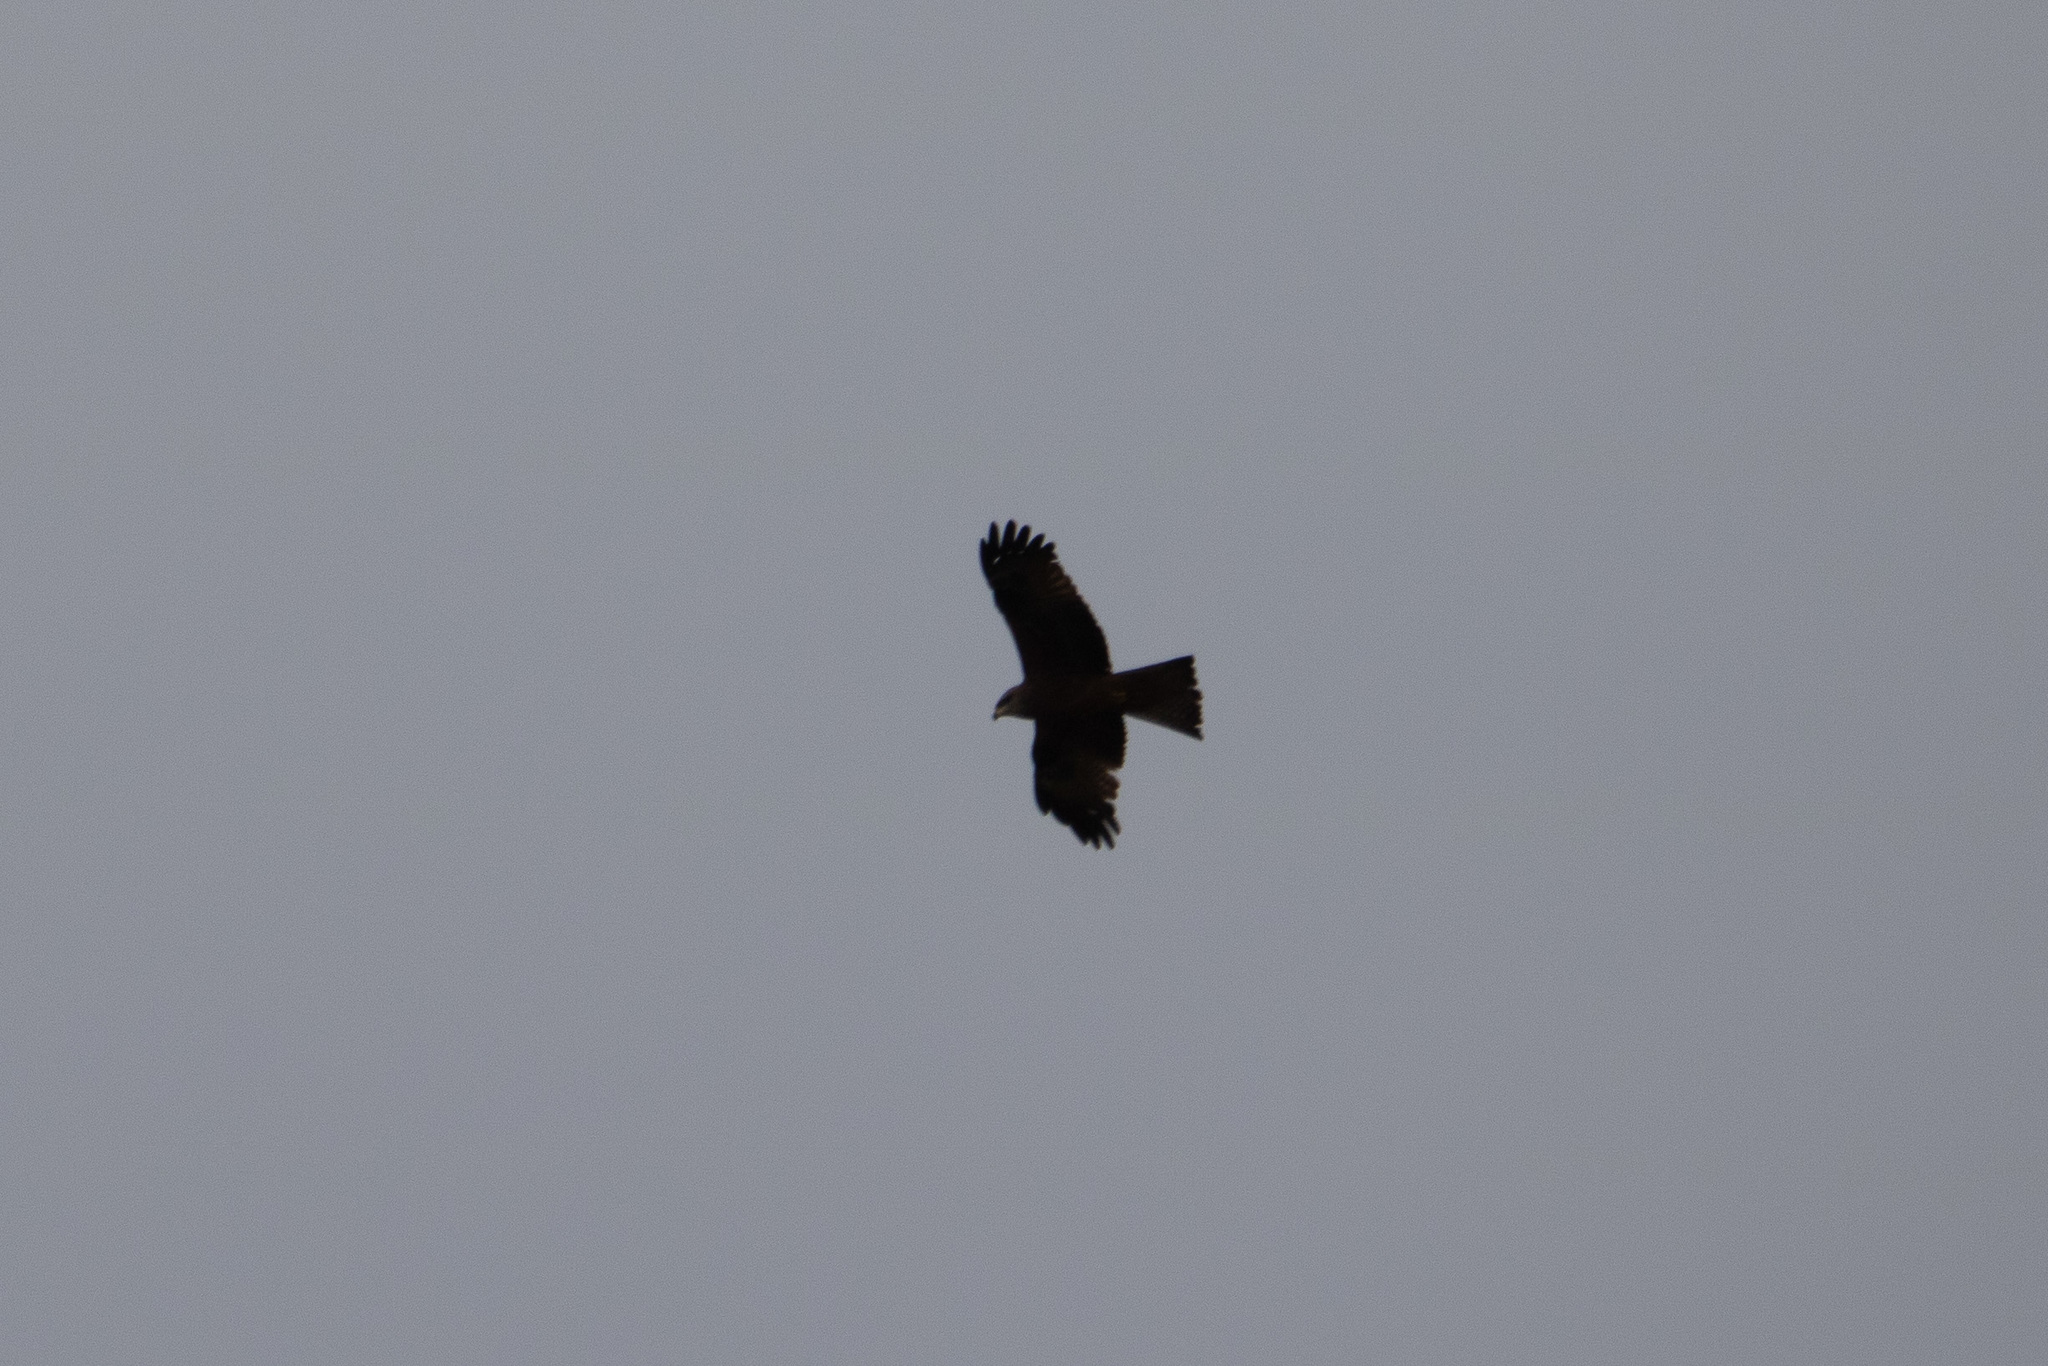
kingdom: Animalia
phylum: Chordata
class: Aves
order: Accipitriformes
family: Accipitridae
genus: Milvus
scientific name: Milvus migrans
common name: Black kite
